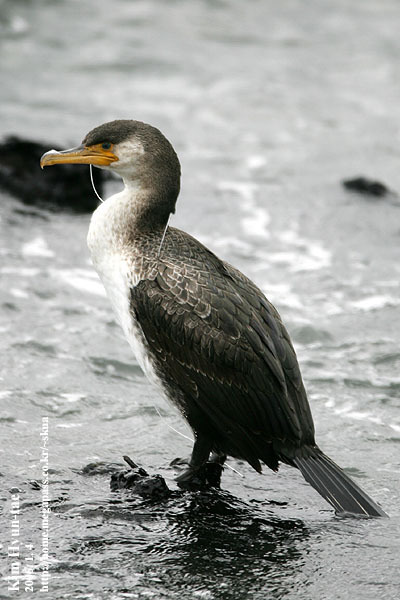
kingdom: Animalia
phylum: Chordata
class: Aves
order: Suliformes
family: Phalacrocoracidae
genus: Phalacrocorax
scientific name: Phalacrocorax capillatus
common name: Japanese cormorant
